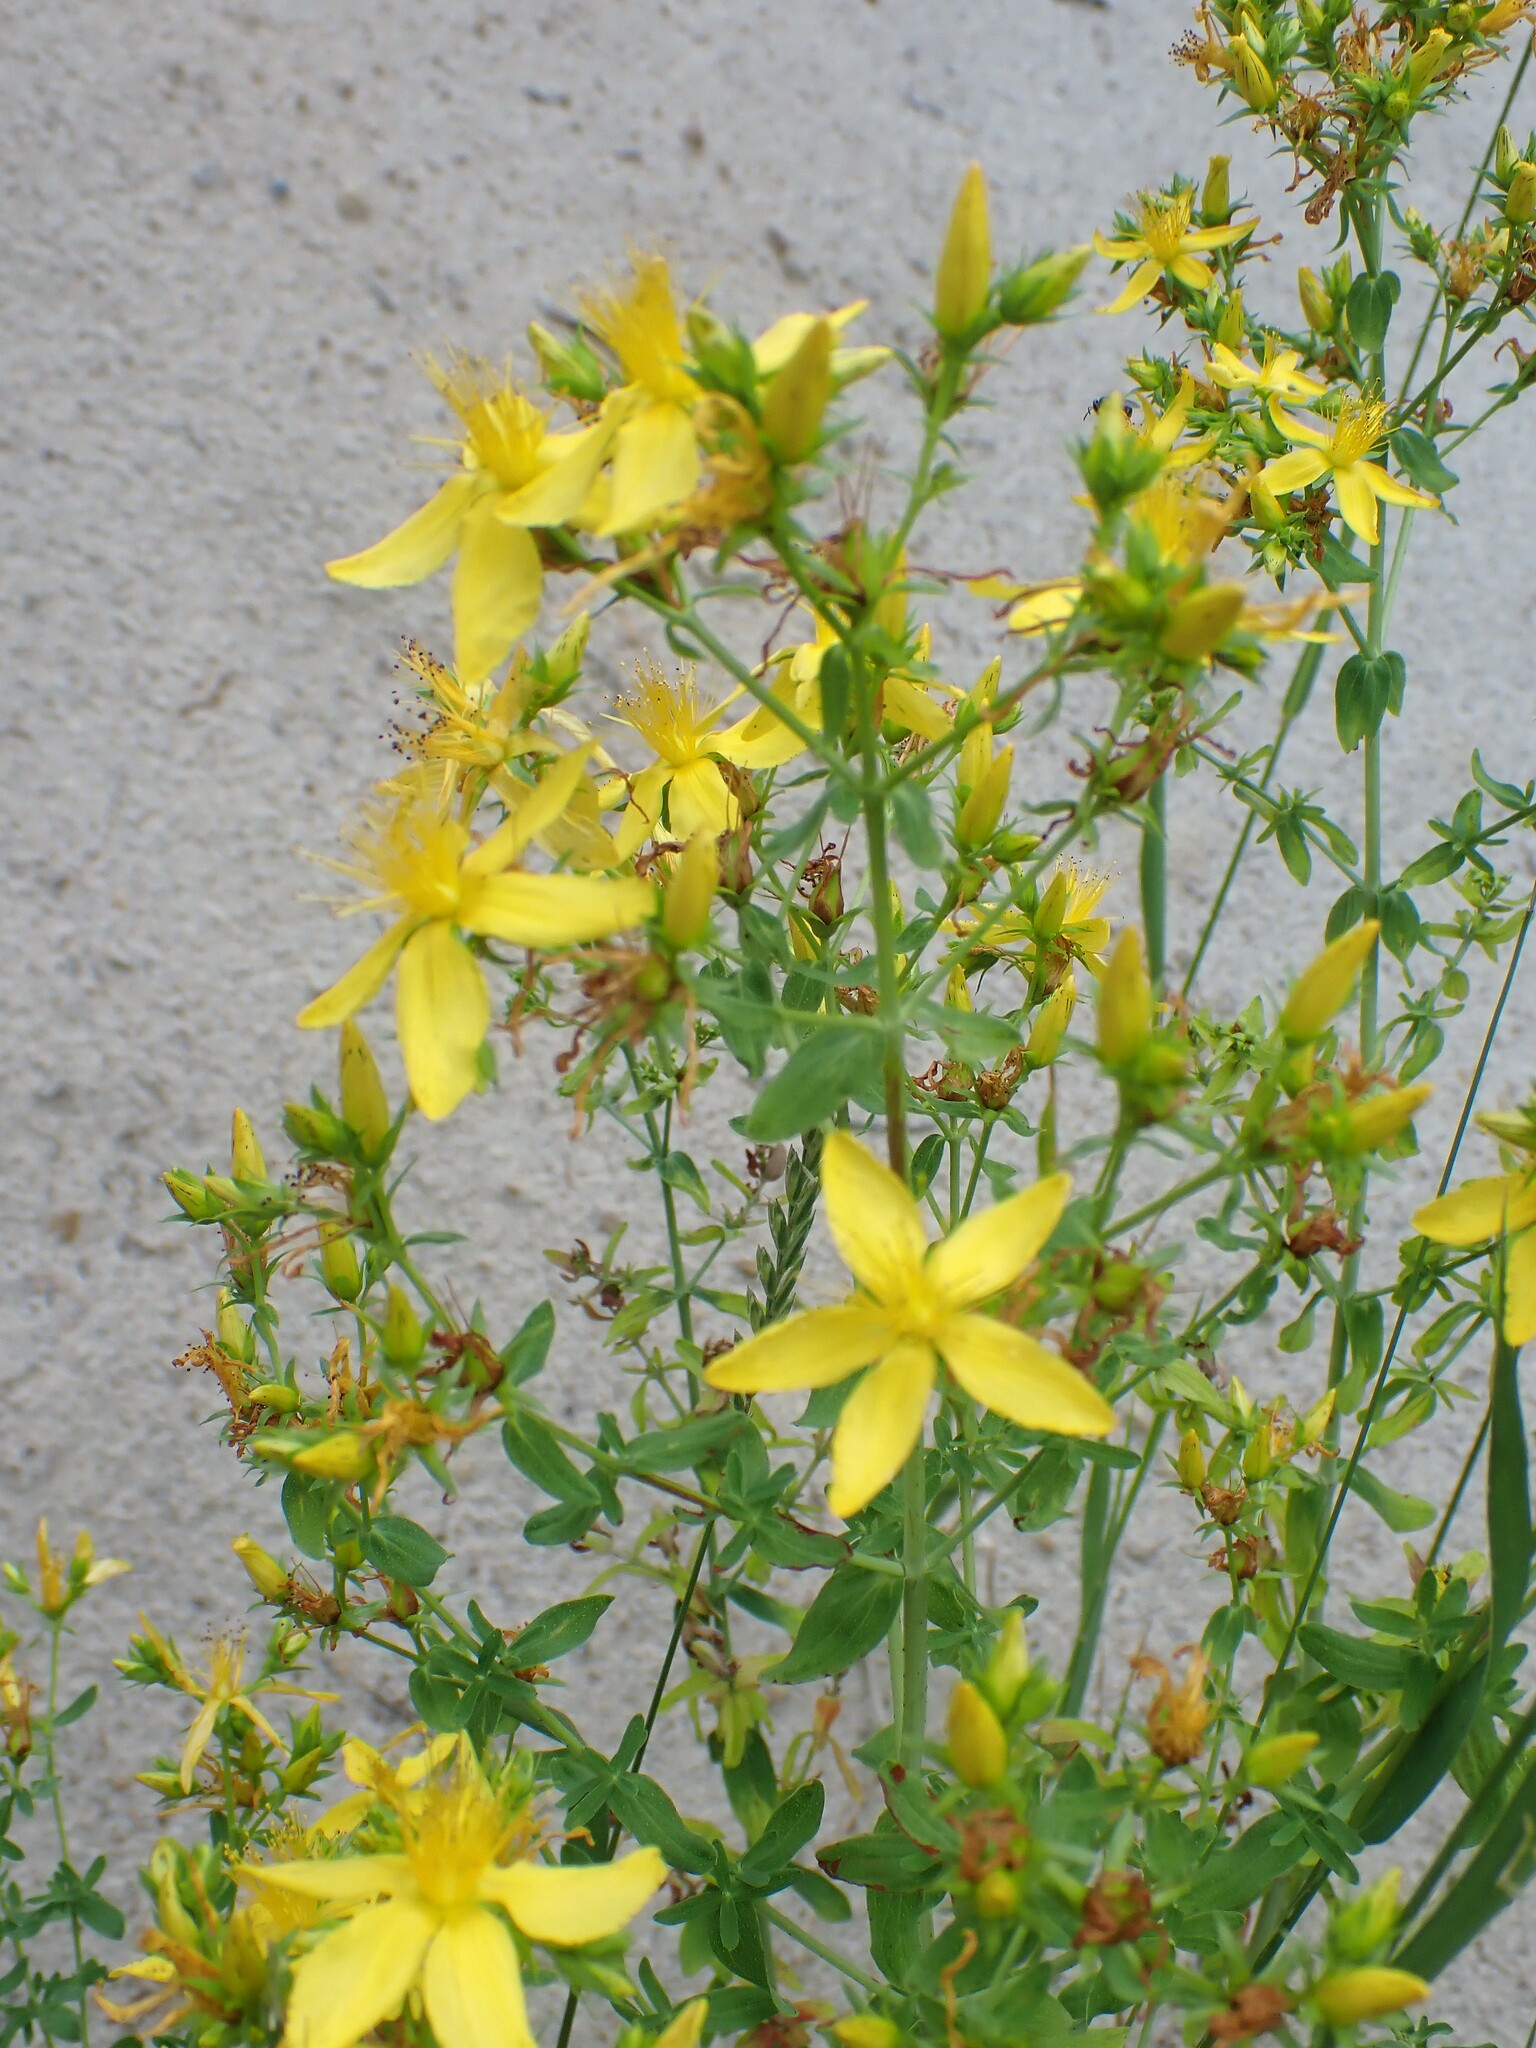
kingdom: Plantae
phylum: Tracheophyta
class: Magnoliopsida
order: Malpighiales
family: Hypericaceae
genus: Hypericum
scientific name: Hypericum perforatum
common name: Common st. johnswort
